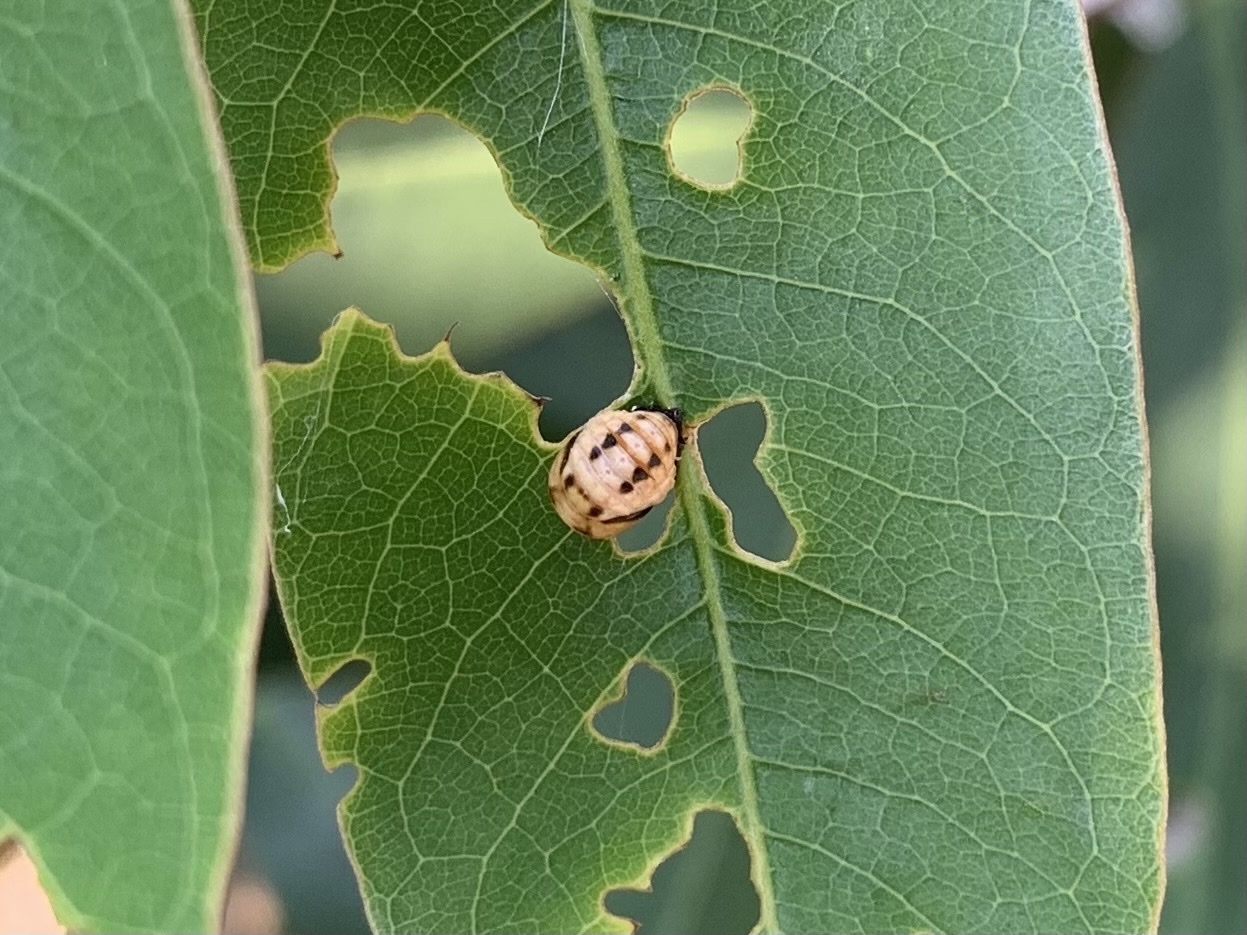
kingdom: Animalia
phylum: Arthropoda
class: Insecta
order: Coleoptera
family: Coccinellidae
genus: Cheilomenes
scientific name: Cheilomenes sexmaculata
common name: Ladybird beetle
